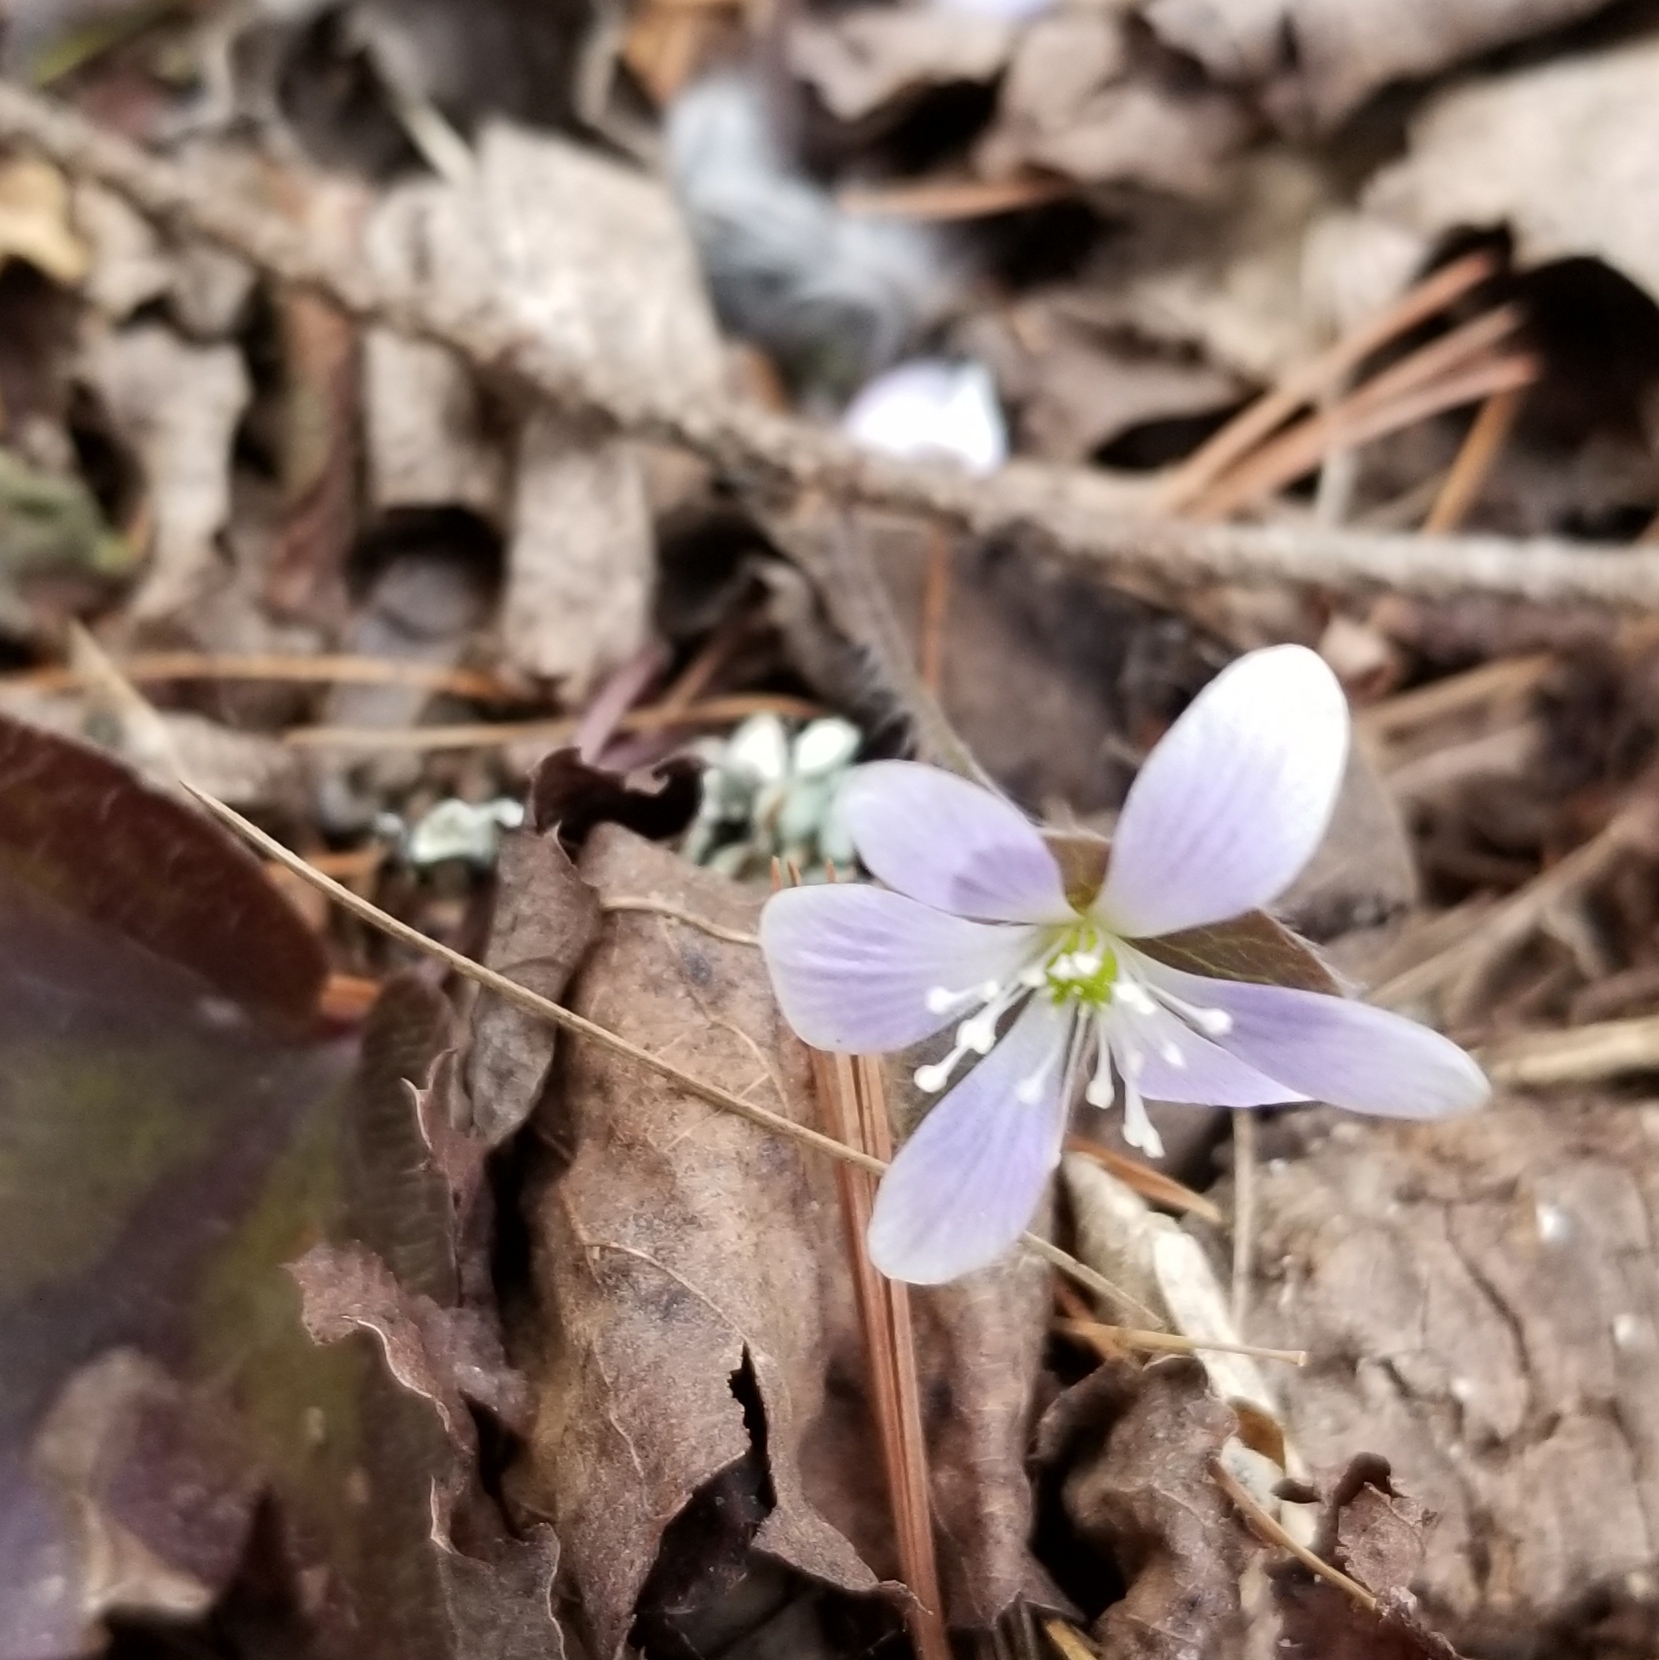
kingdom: Plantae
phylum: Tracheophyta
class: Magnoliopsida
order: Ranunculales
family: Ranunculaceae
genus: Hepatica
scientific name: Hepatica americana
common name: American hepatica
